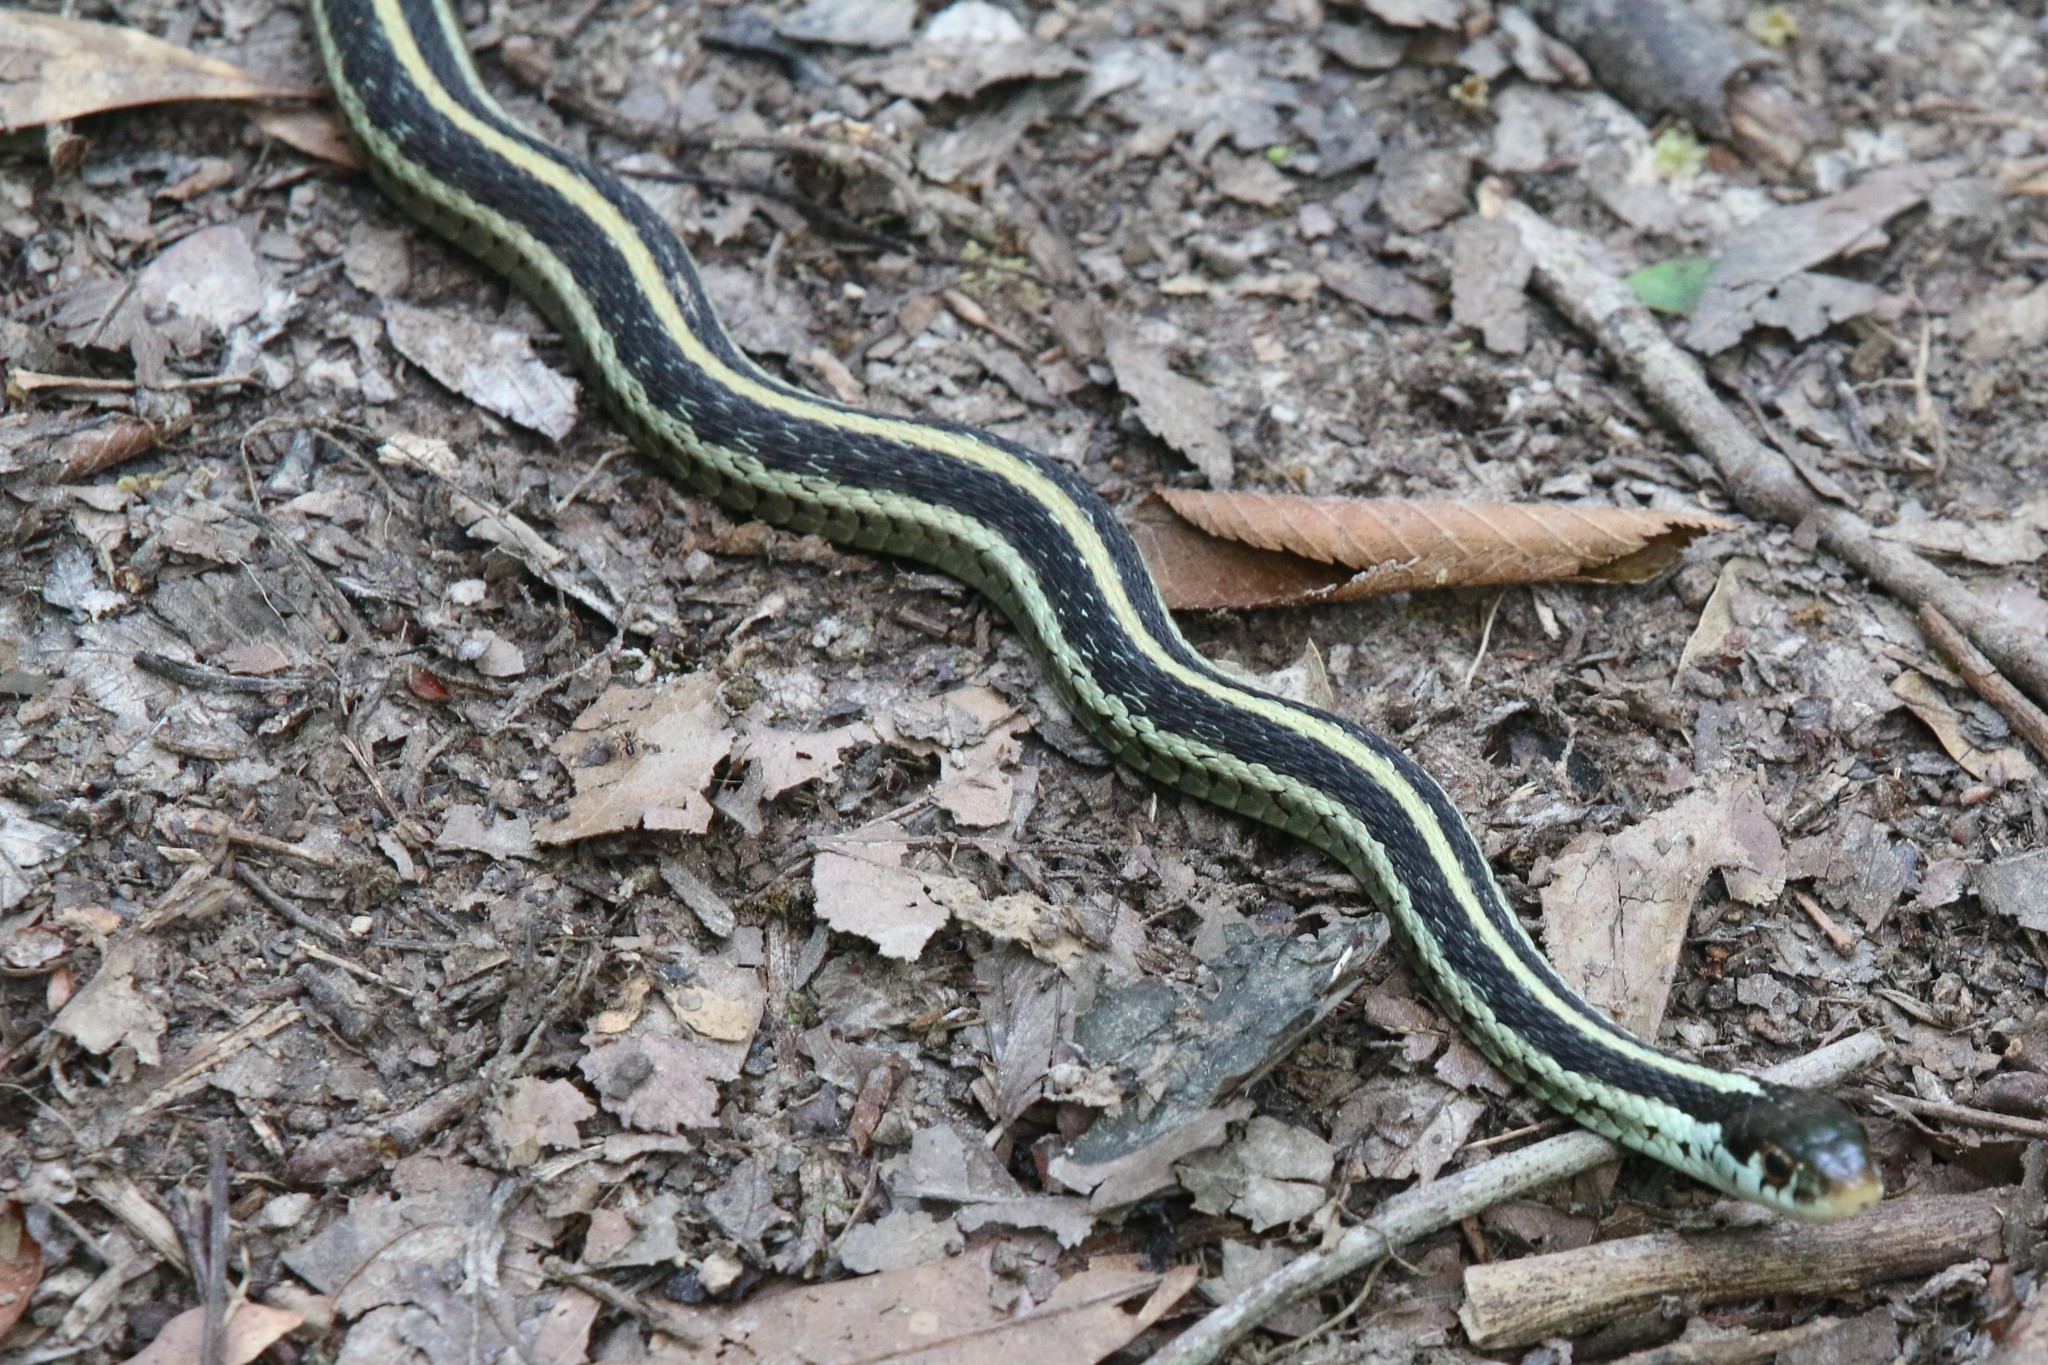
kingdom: Animalia
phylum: Chordata
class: Squamata
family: Colubridae
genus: Thamnophis
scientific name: Thamnophis sirtalis
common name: Common garter snake
